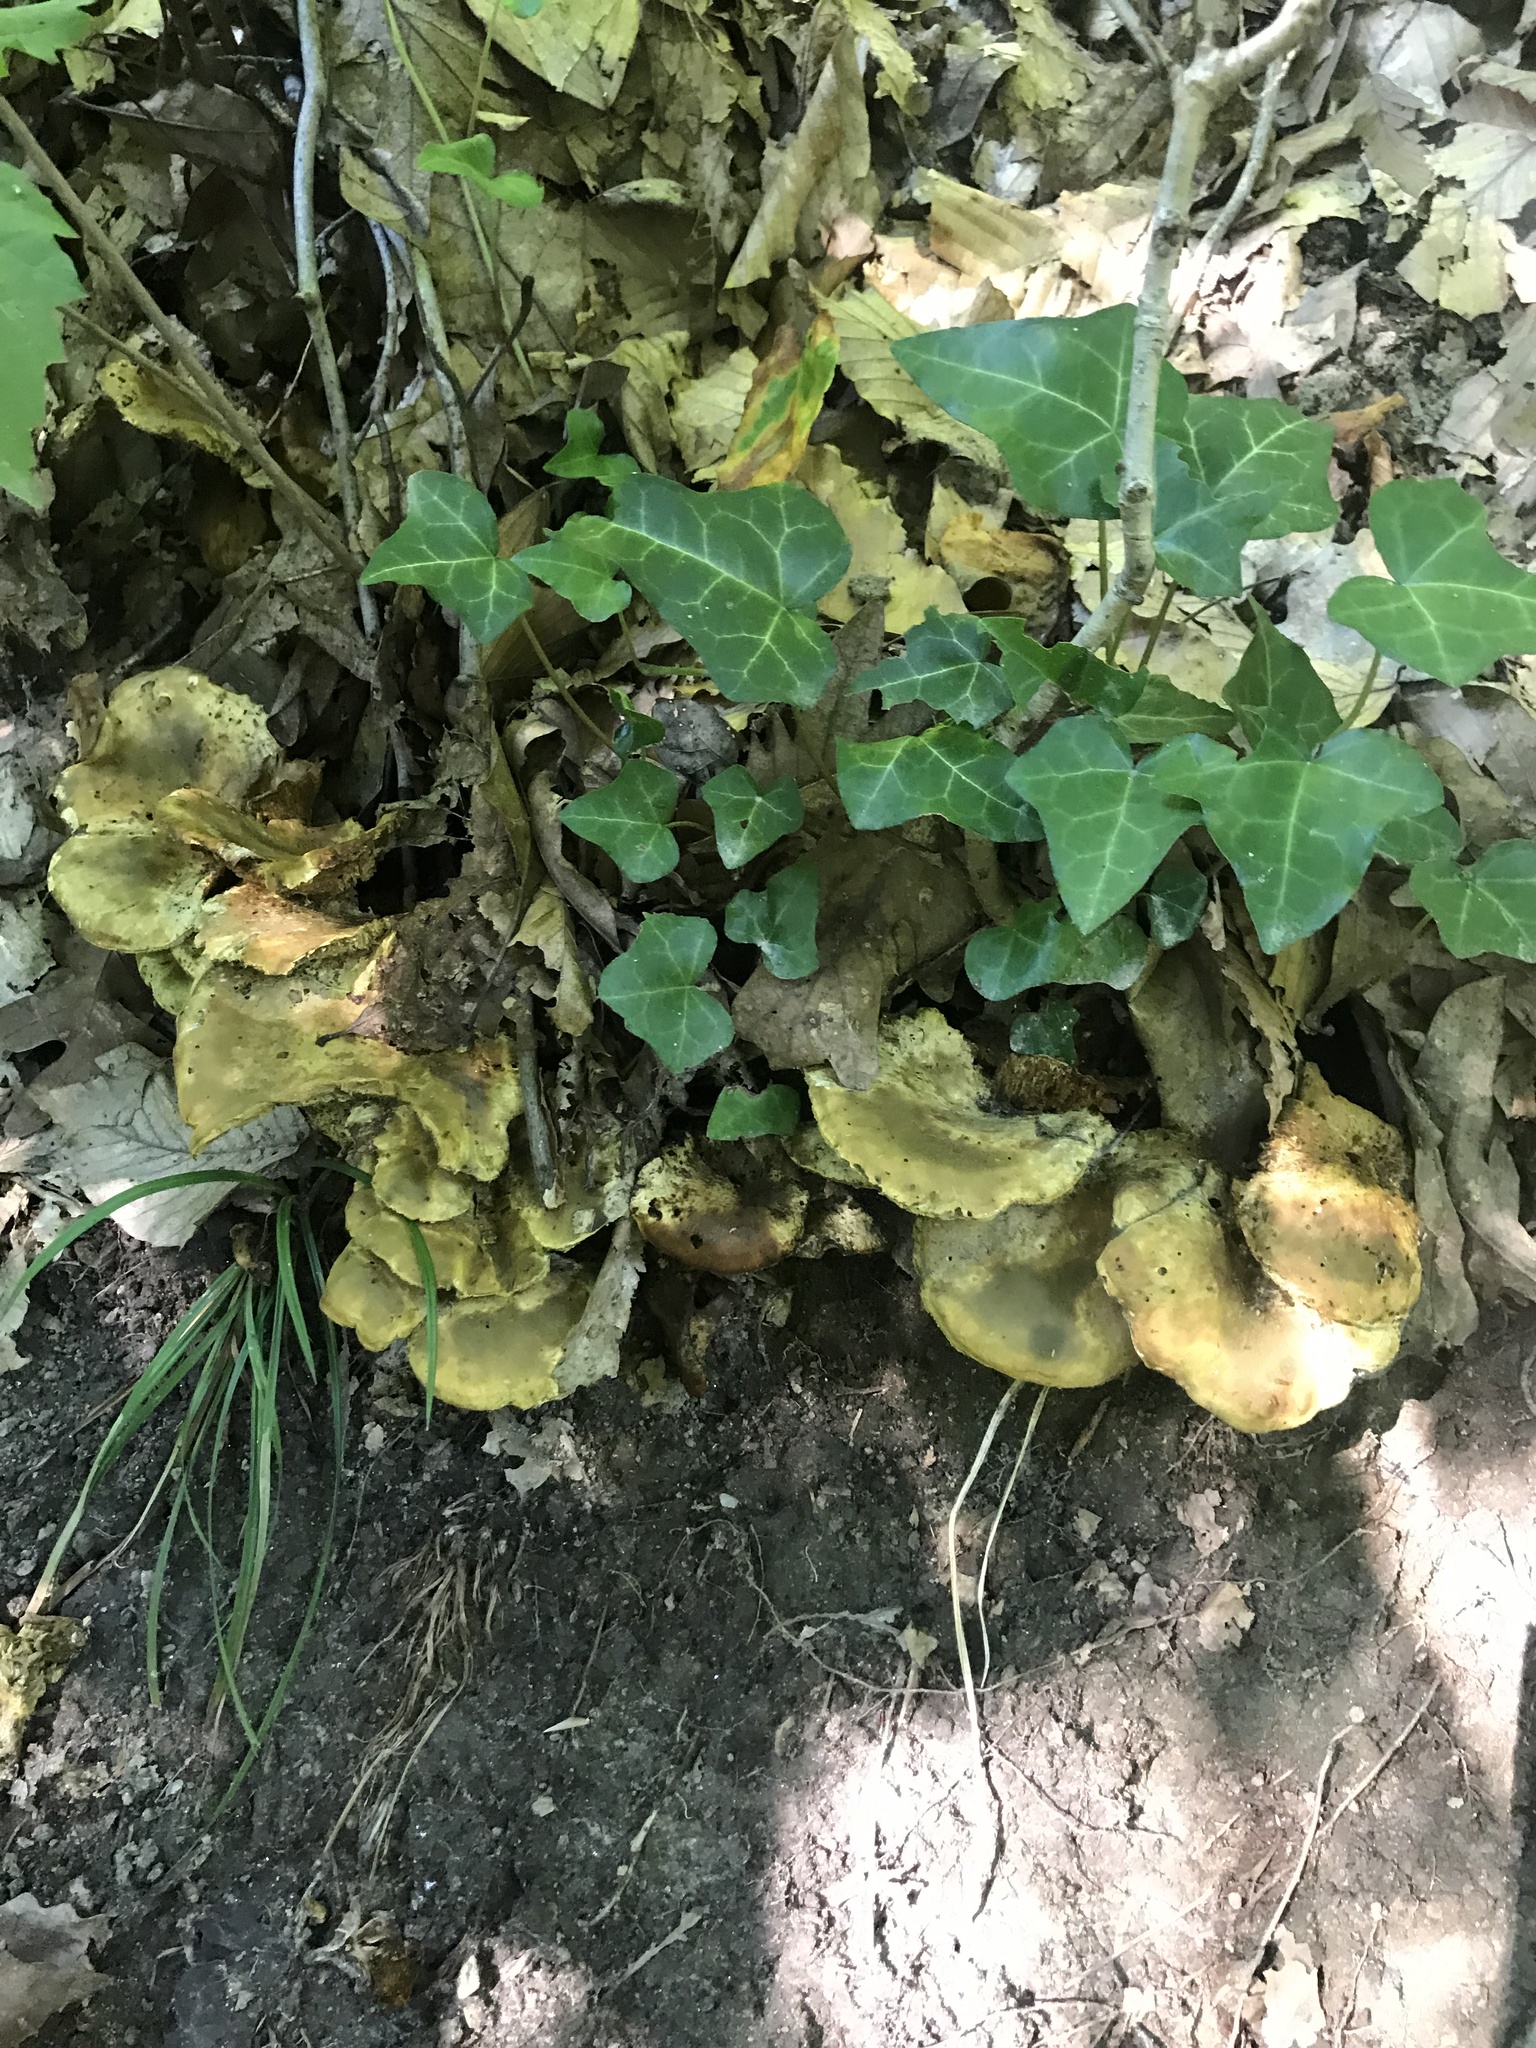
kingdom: Fungi
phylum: Basidiomycota
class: Agaricomycetes
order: Russulales
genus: Laeticutis
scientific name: Laeticutis cristata
